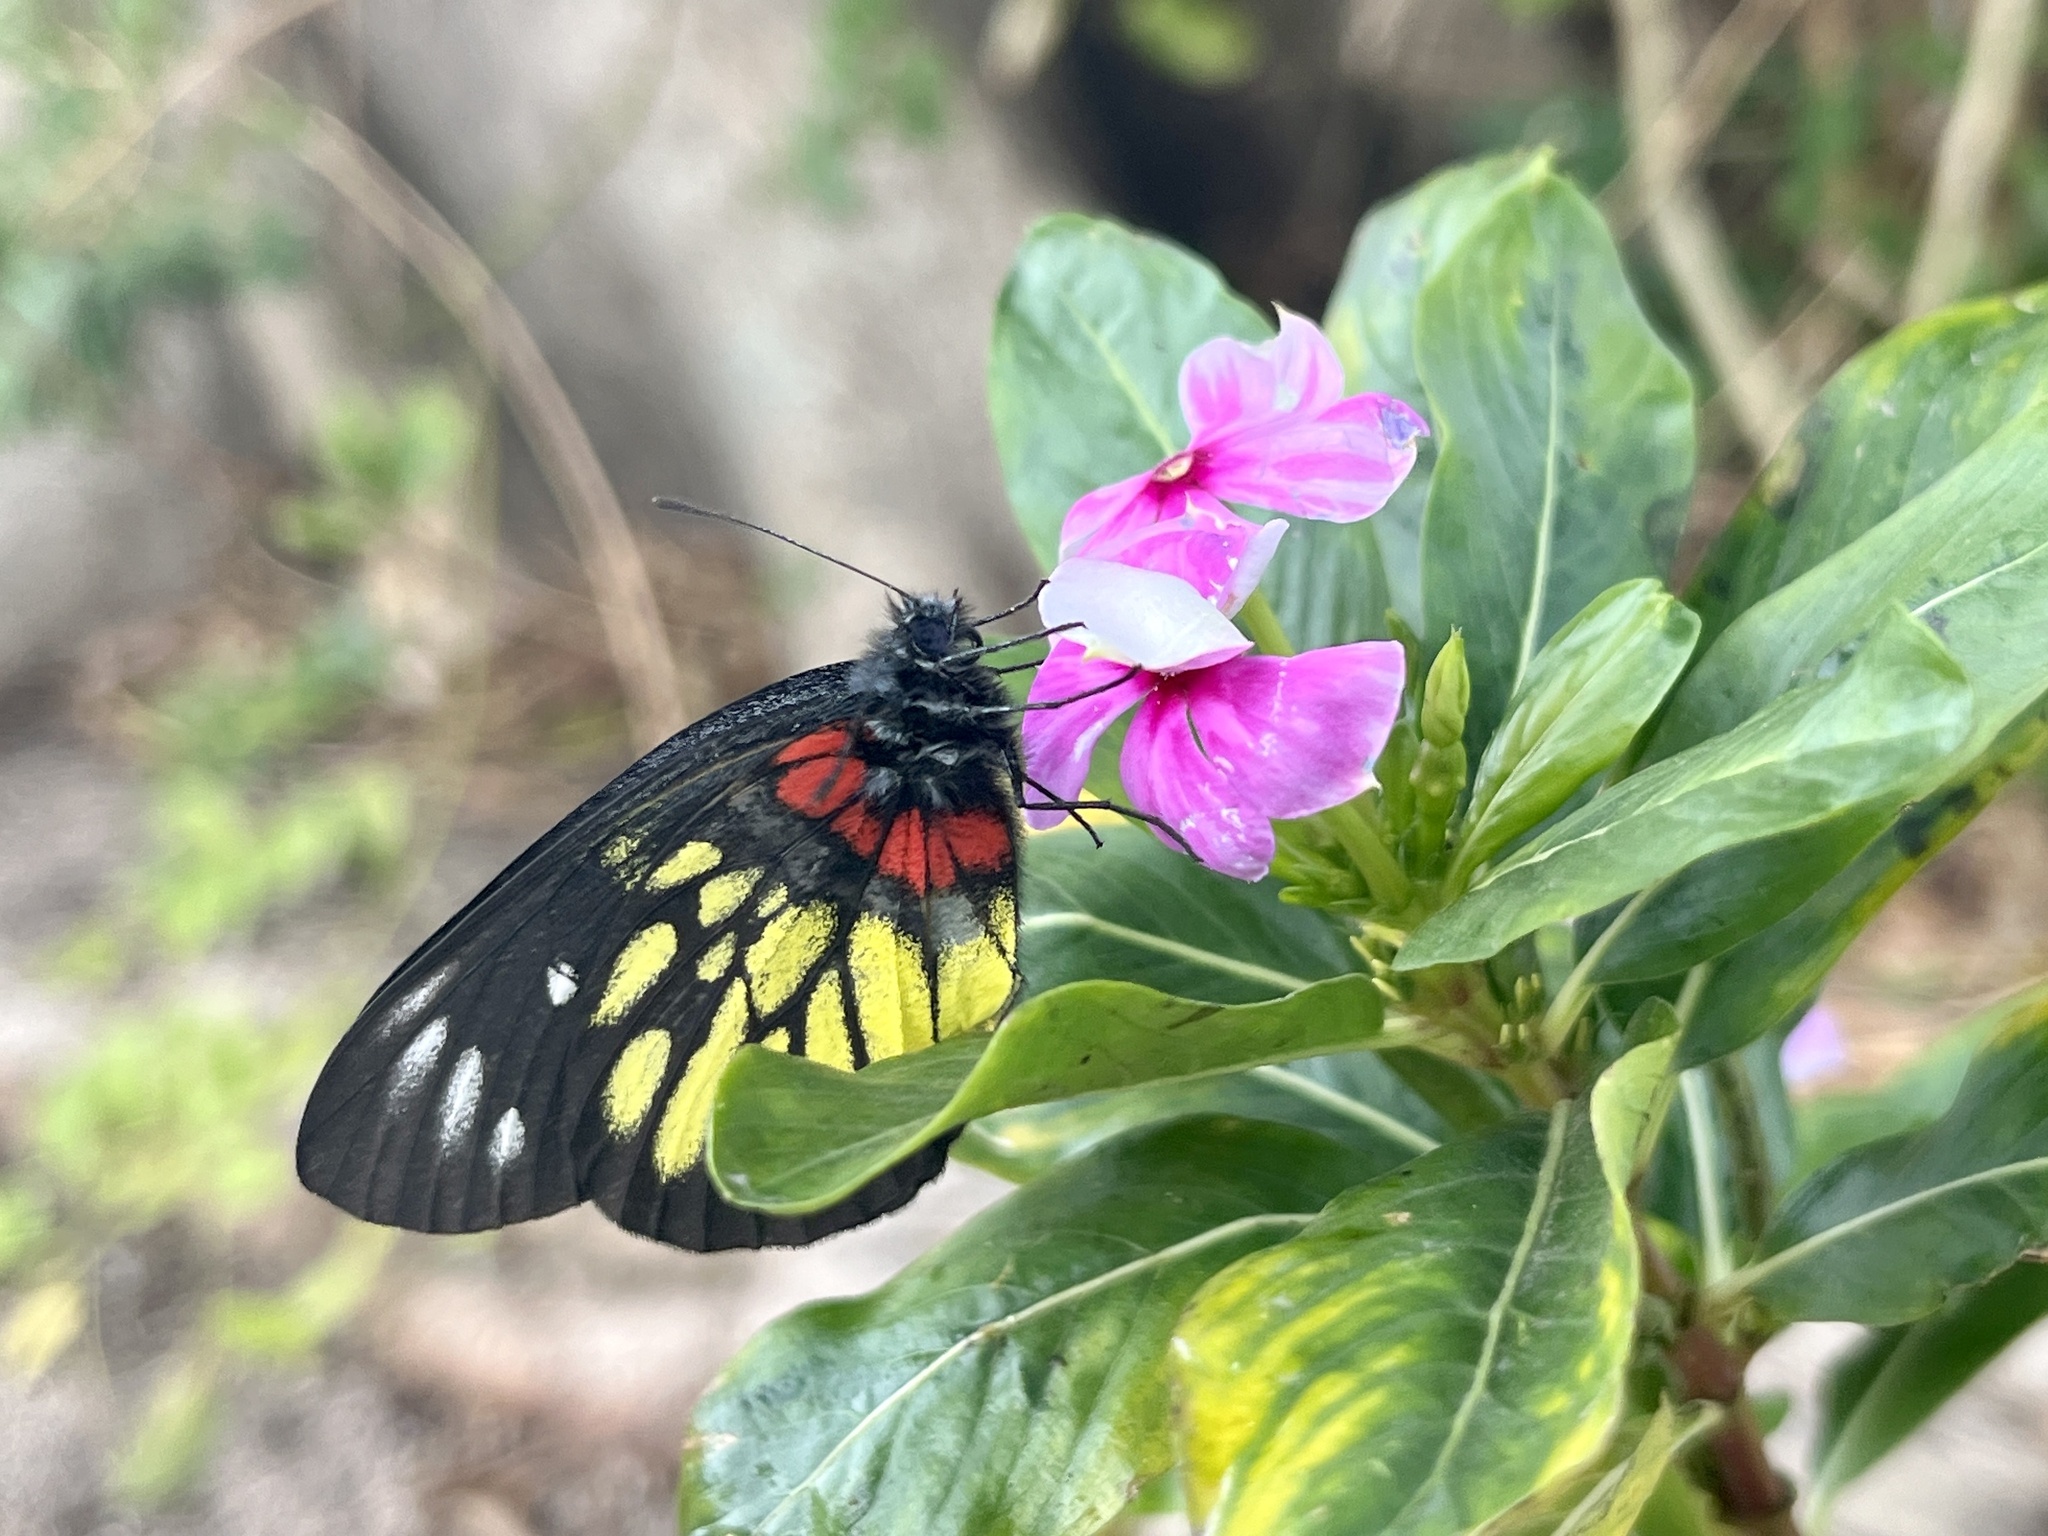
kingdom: Animalia
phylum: Arthropoda
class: Insecta
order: Lepidoptera
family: Pieridae
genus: Delias
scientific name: Delias pasithoe
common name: Red-base jezebel
